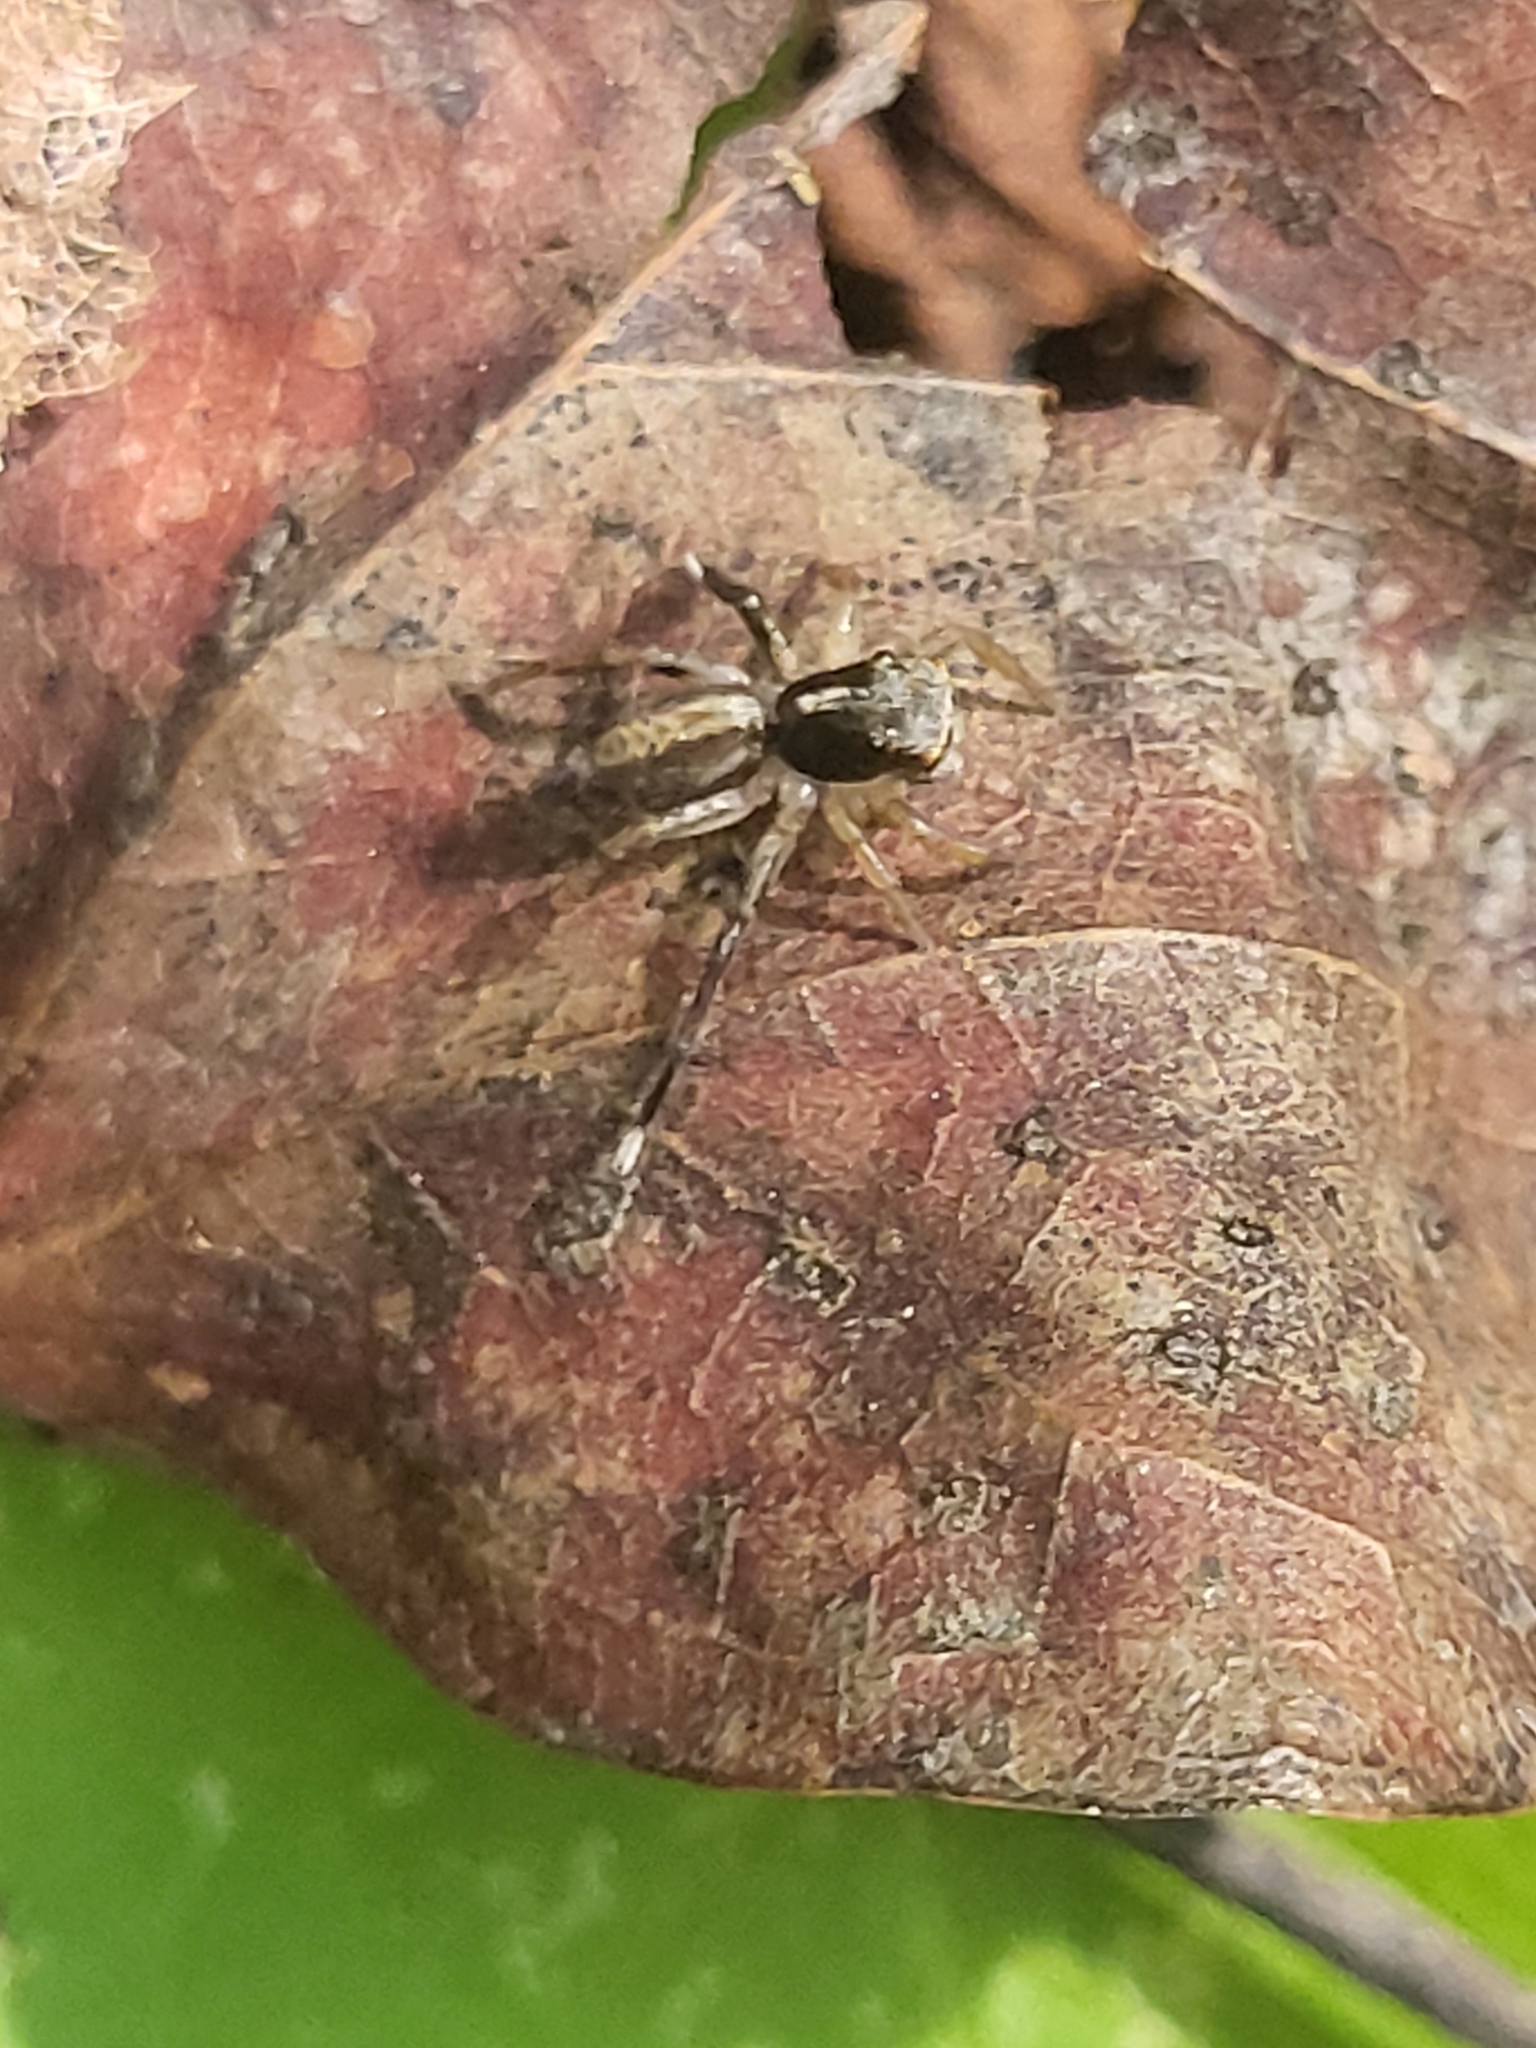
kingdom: Animalia
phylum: Arthropoda
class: Arachnida
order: Araneae
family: Salticidae
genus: Saitis
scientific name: Saitis
